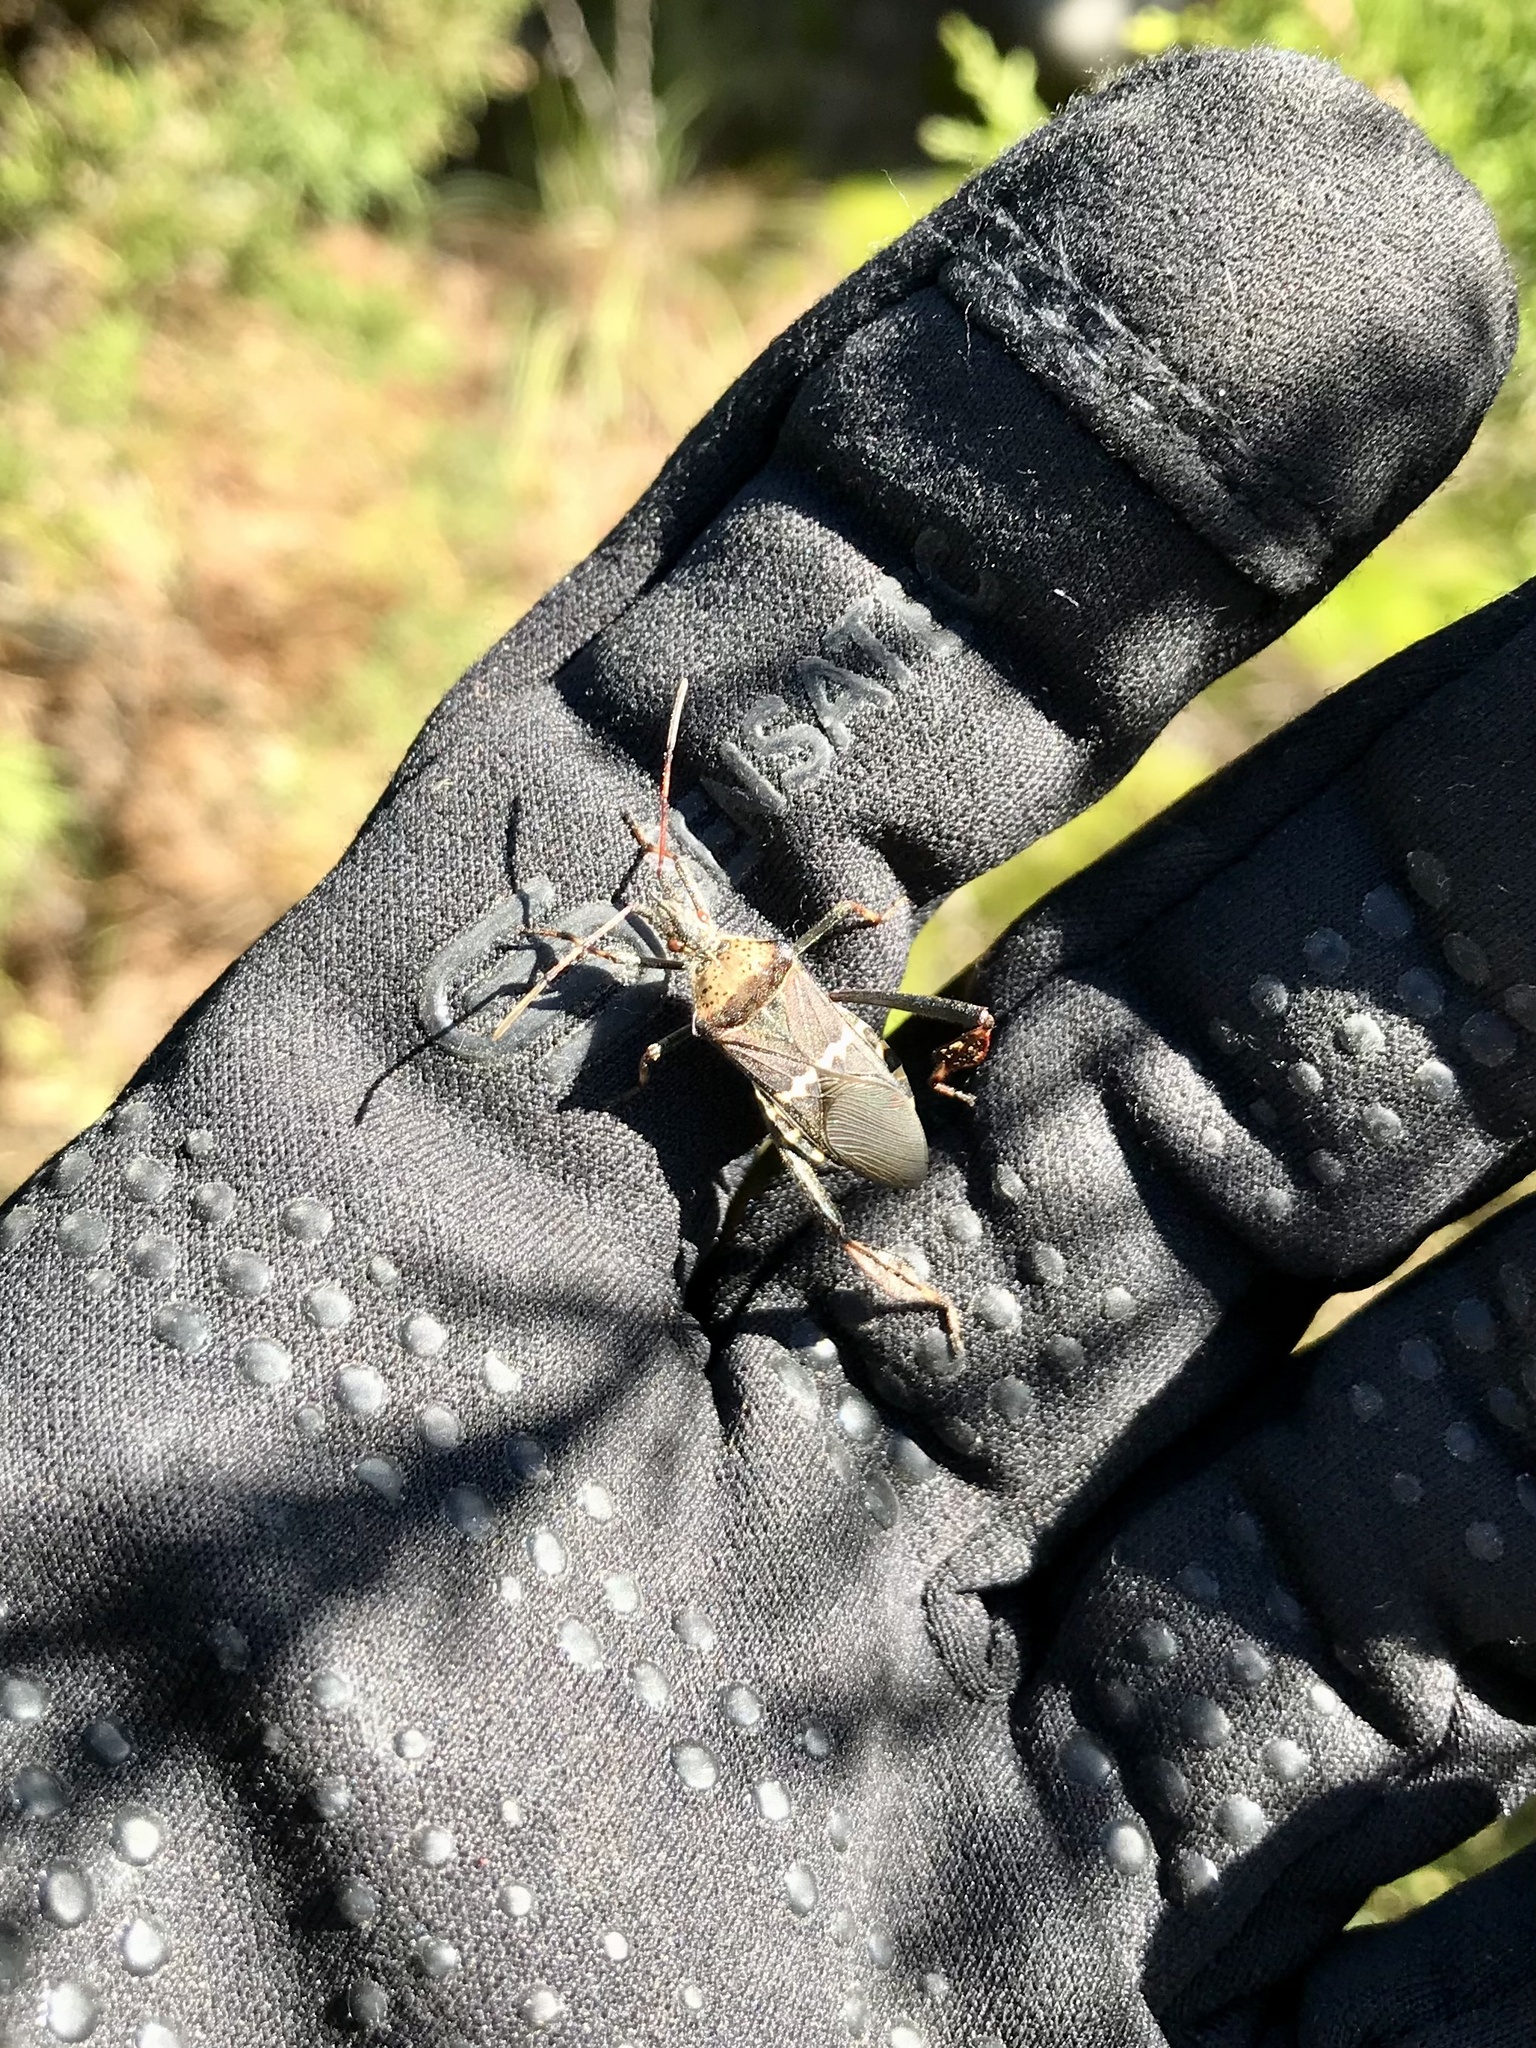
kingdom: Animalia
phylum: Arthropoda
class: Insecta
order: Hemiptera
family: Coreidae
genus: Leptoglossus
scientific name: Leptoglossus clypealis
